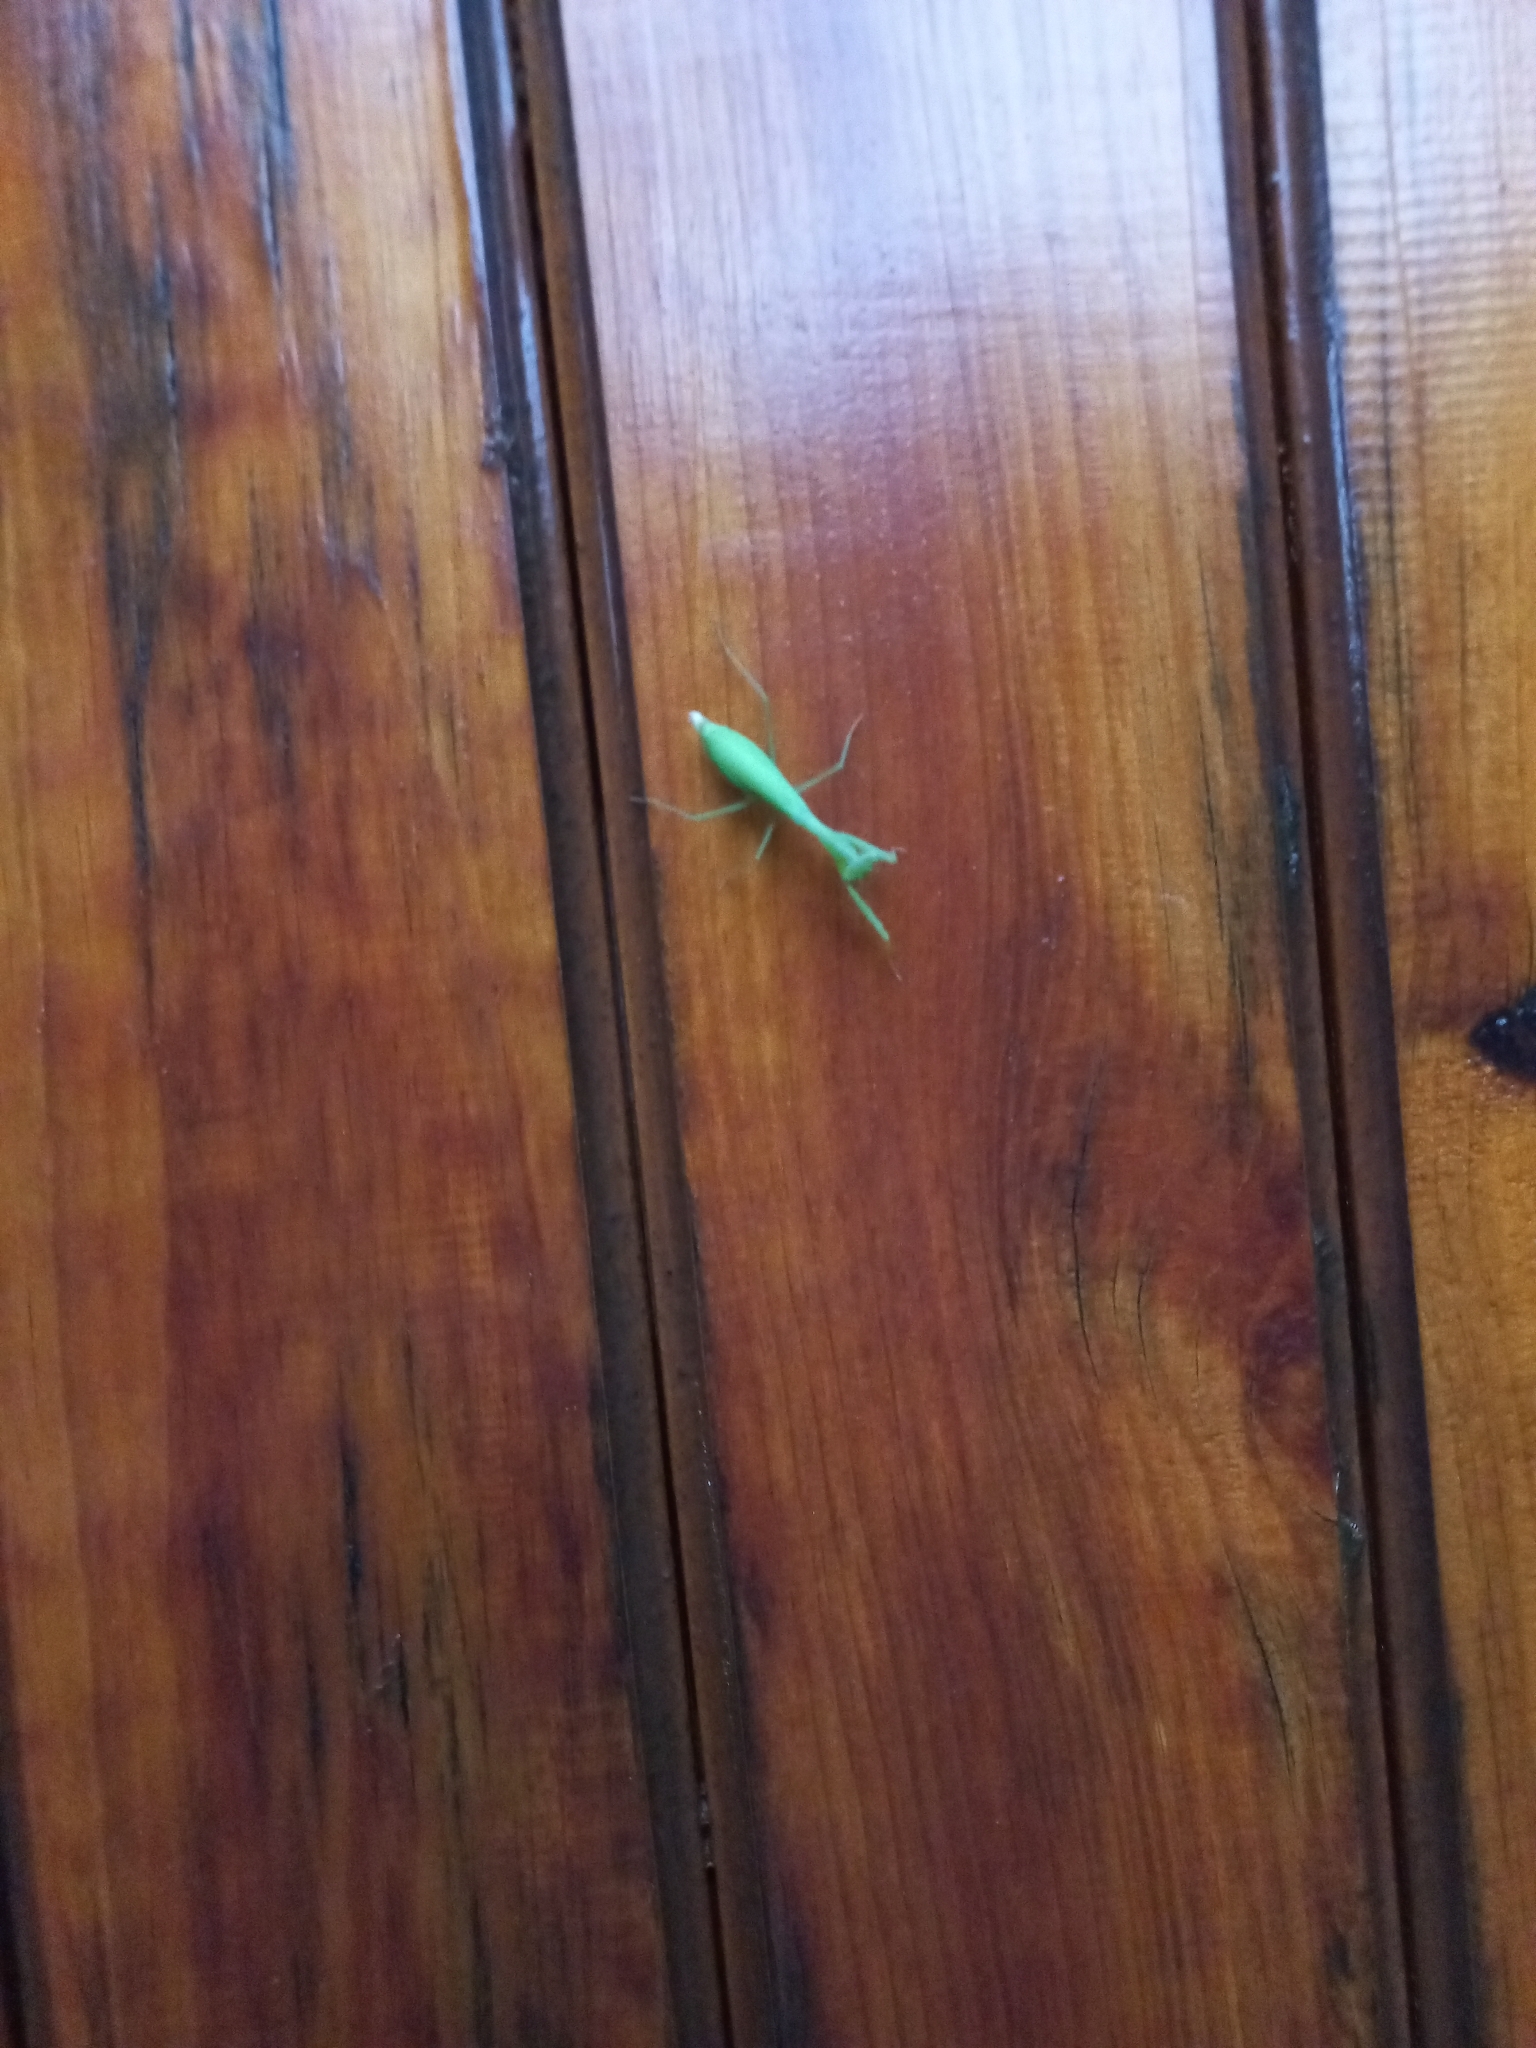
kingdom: Animalia
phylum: Arthropoda
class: Insecta
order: Mantodea
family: Miomantidae
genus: Miomantis
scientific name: Miomantis caffra
